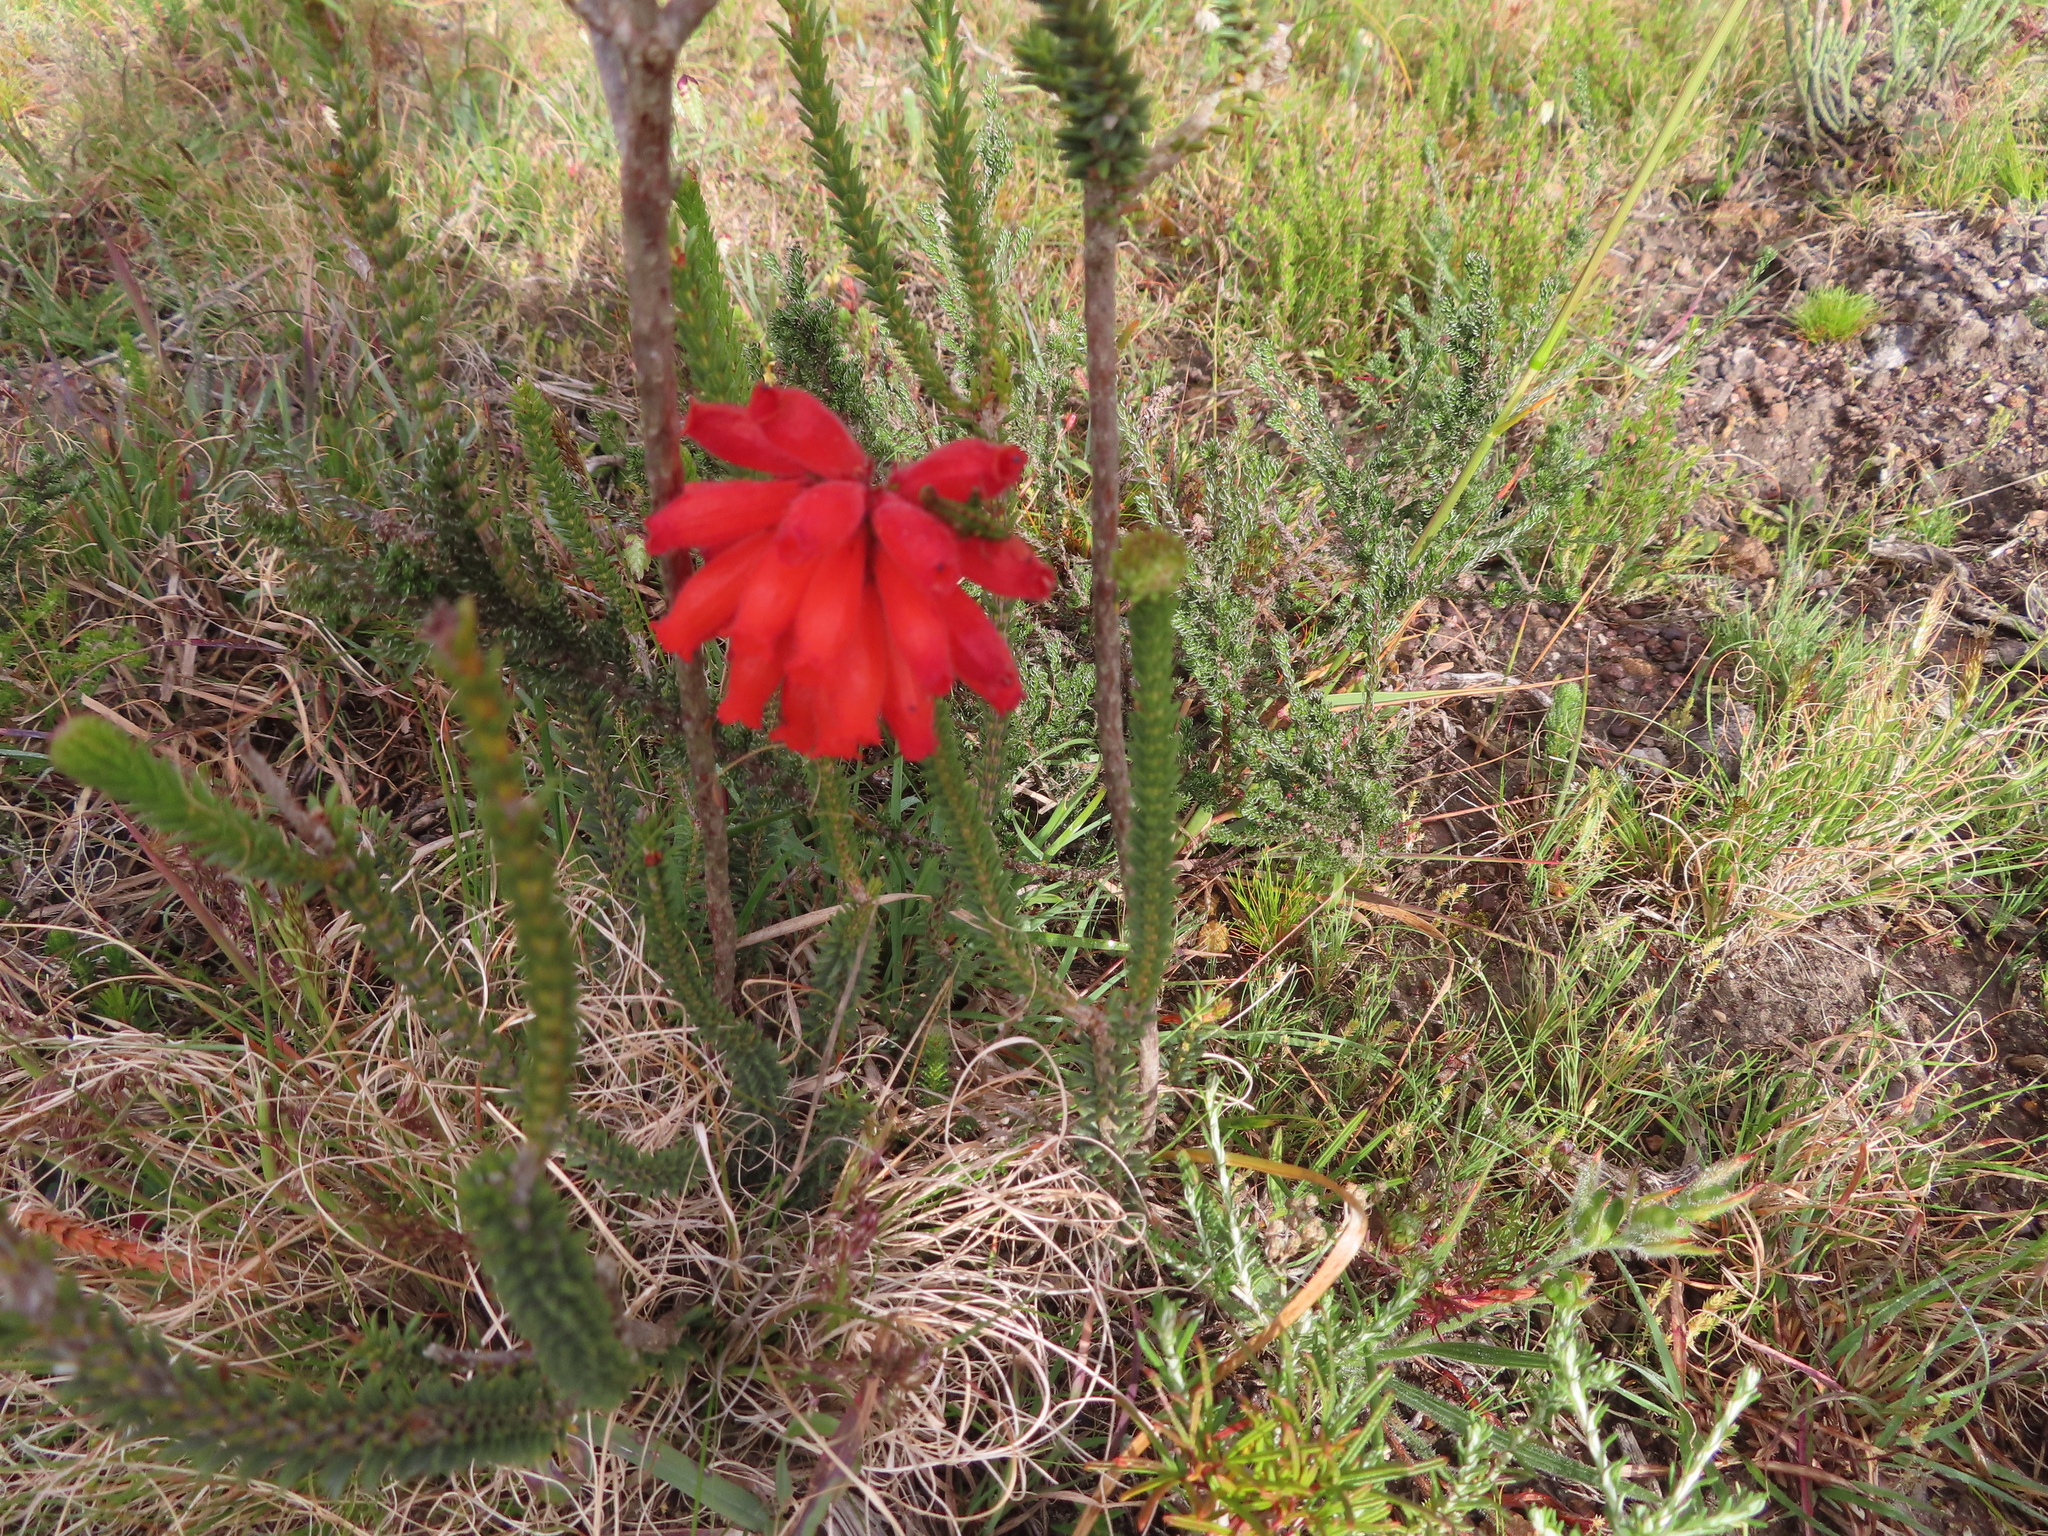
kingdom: Plantae
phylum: Tracheophyta
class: Magnoliopsida
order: Ericales
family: Ericaceae
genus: Erica
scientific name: Erica cerinthoides
